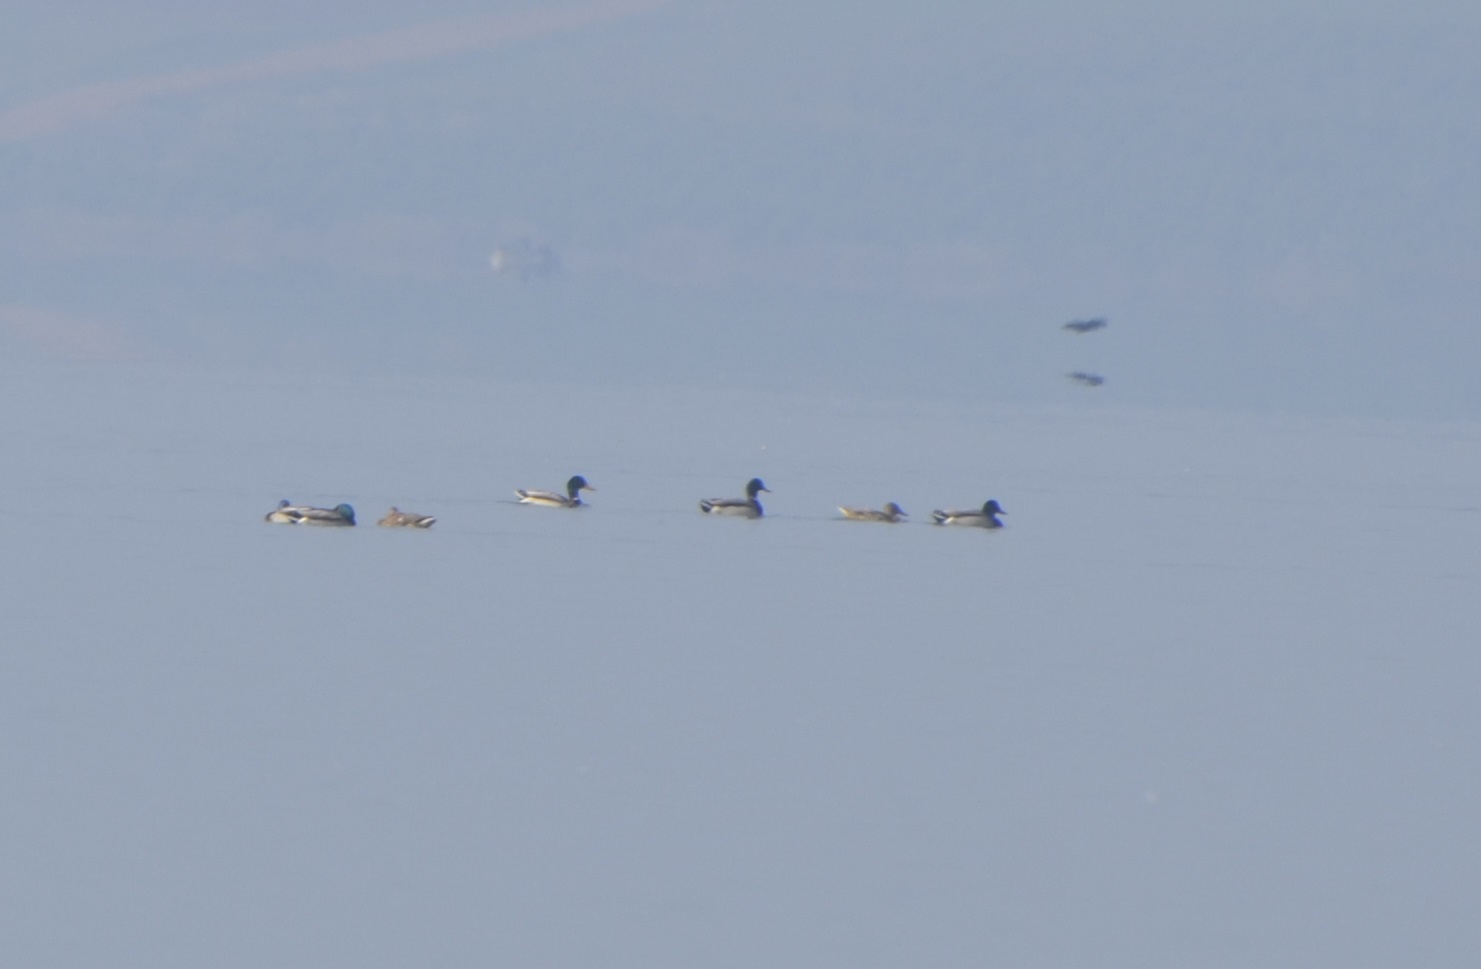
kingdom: Animalia
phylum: Chordata
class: Aves
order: Anseriformes
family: Anatidae
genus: Anas
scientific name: Anas platyrhynchos
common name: Mallard
